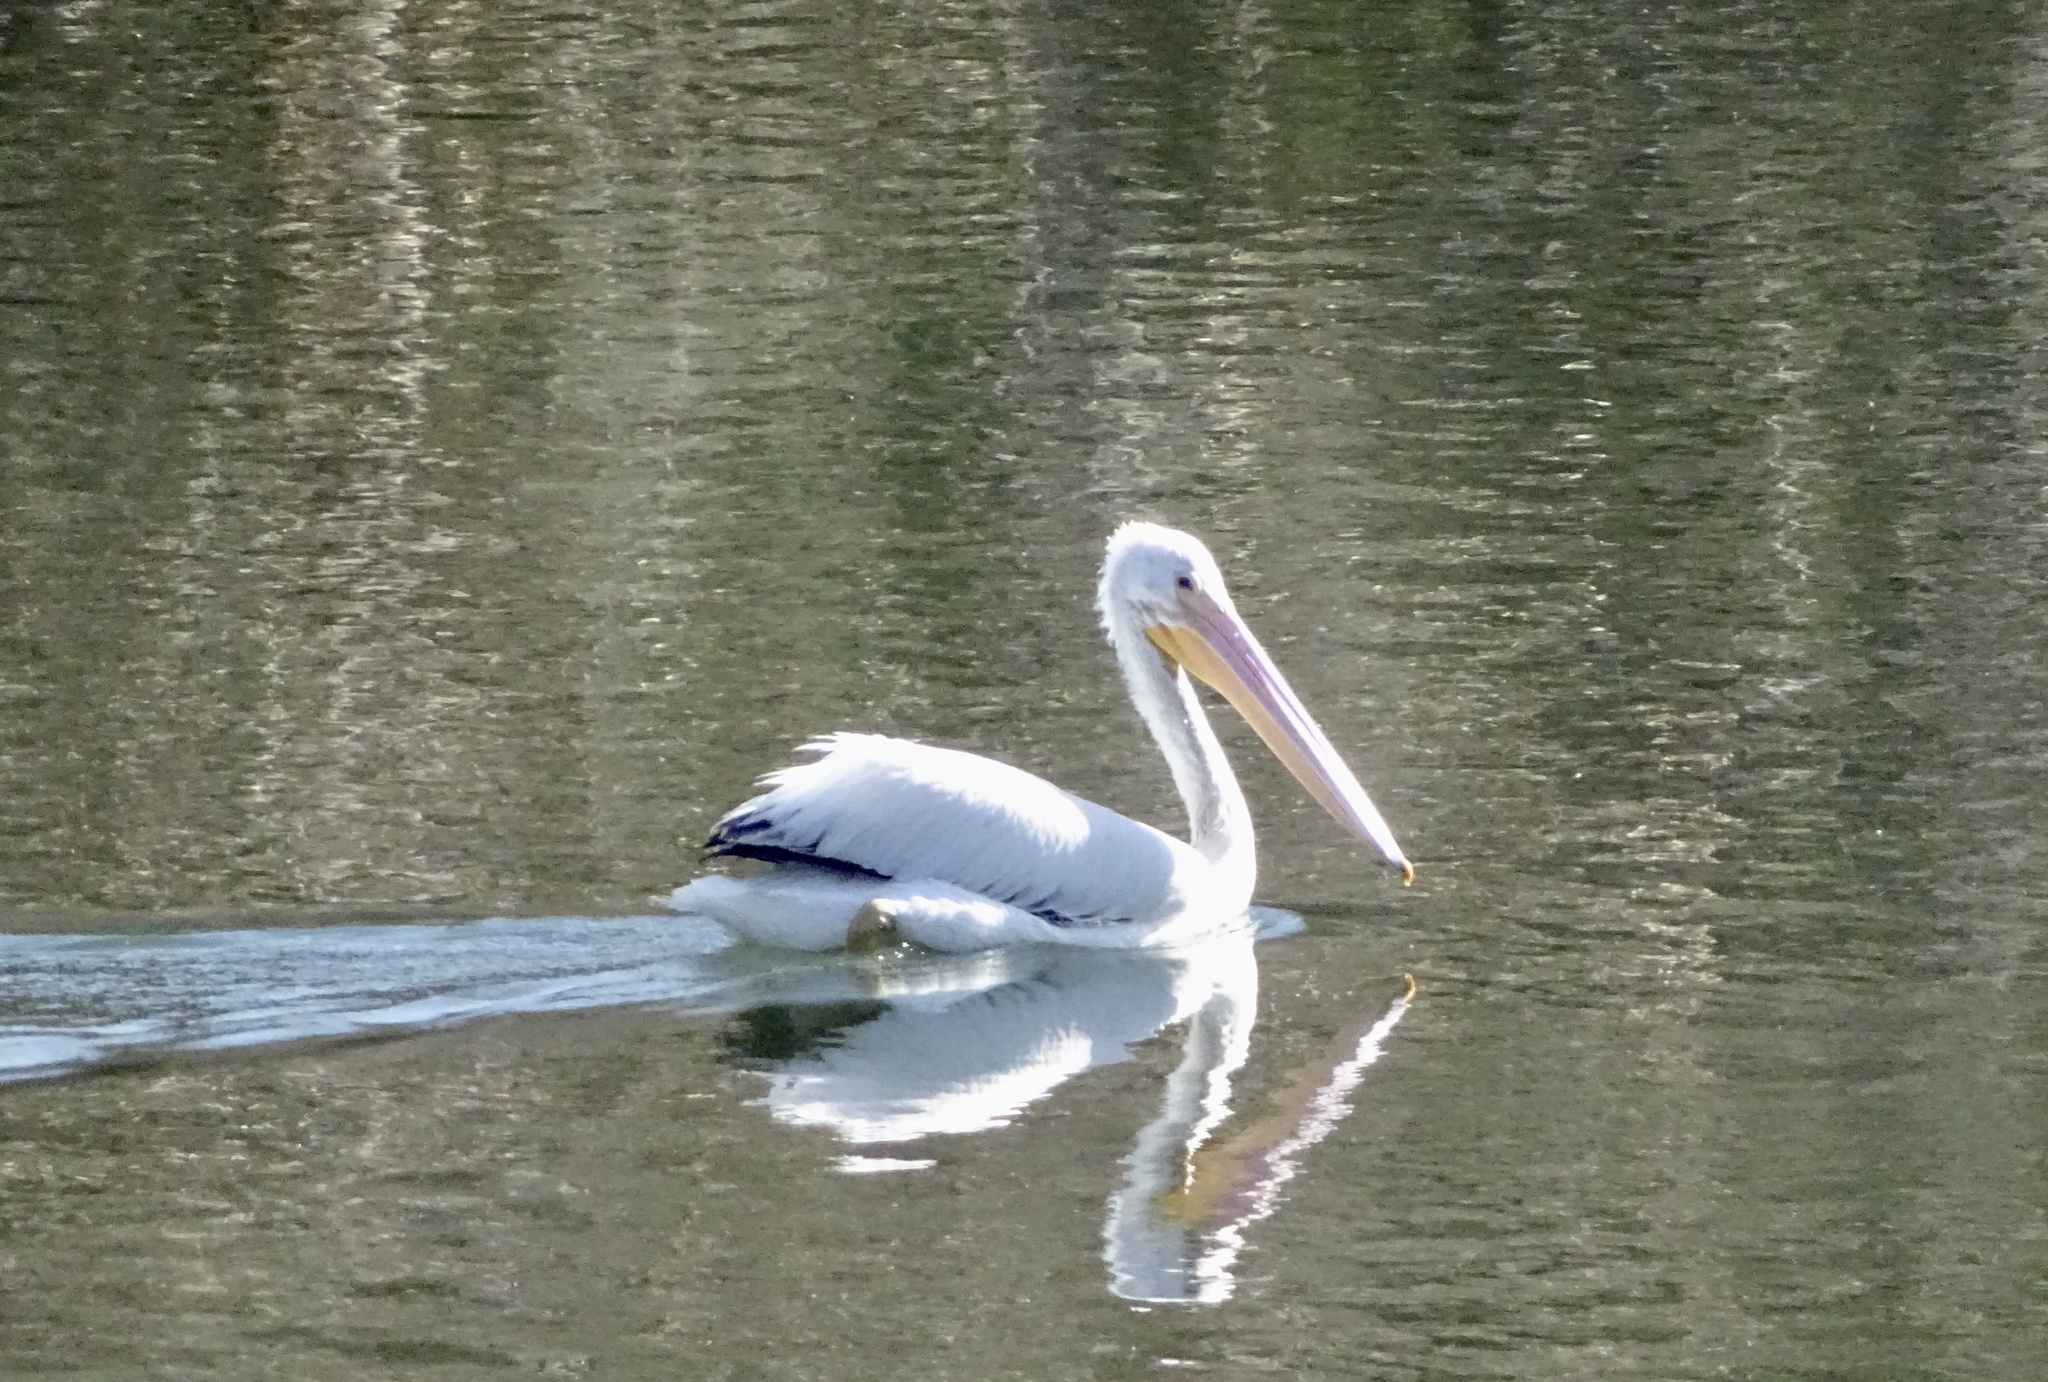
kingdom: Animalia
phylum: Chordata
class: Aves
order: Pelecaniformes
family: Pelecanidae
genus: Pelecanus
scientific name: Pelecanus erythrorhynchos
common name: American white pelican
